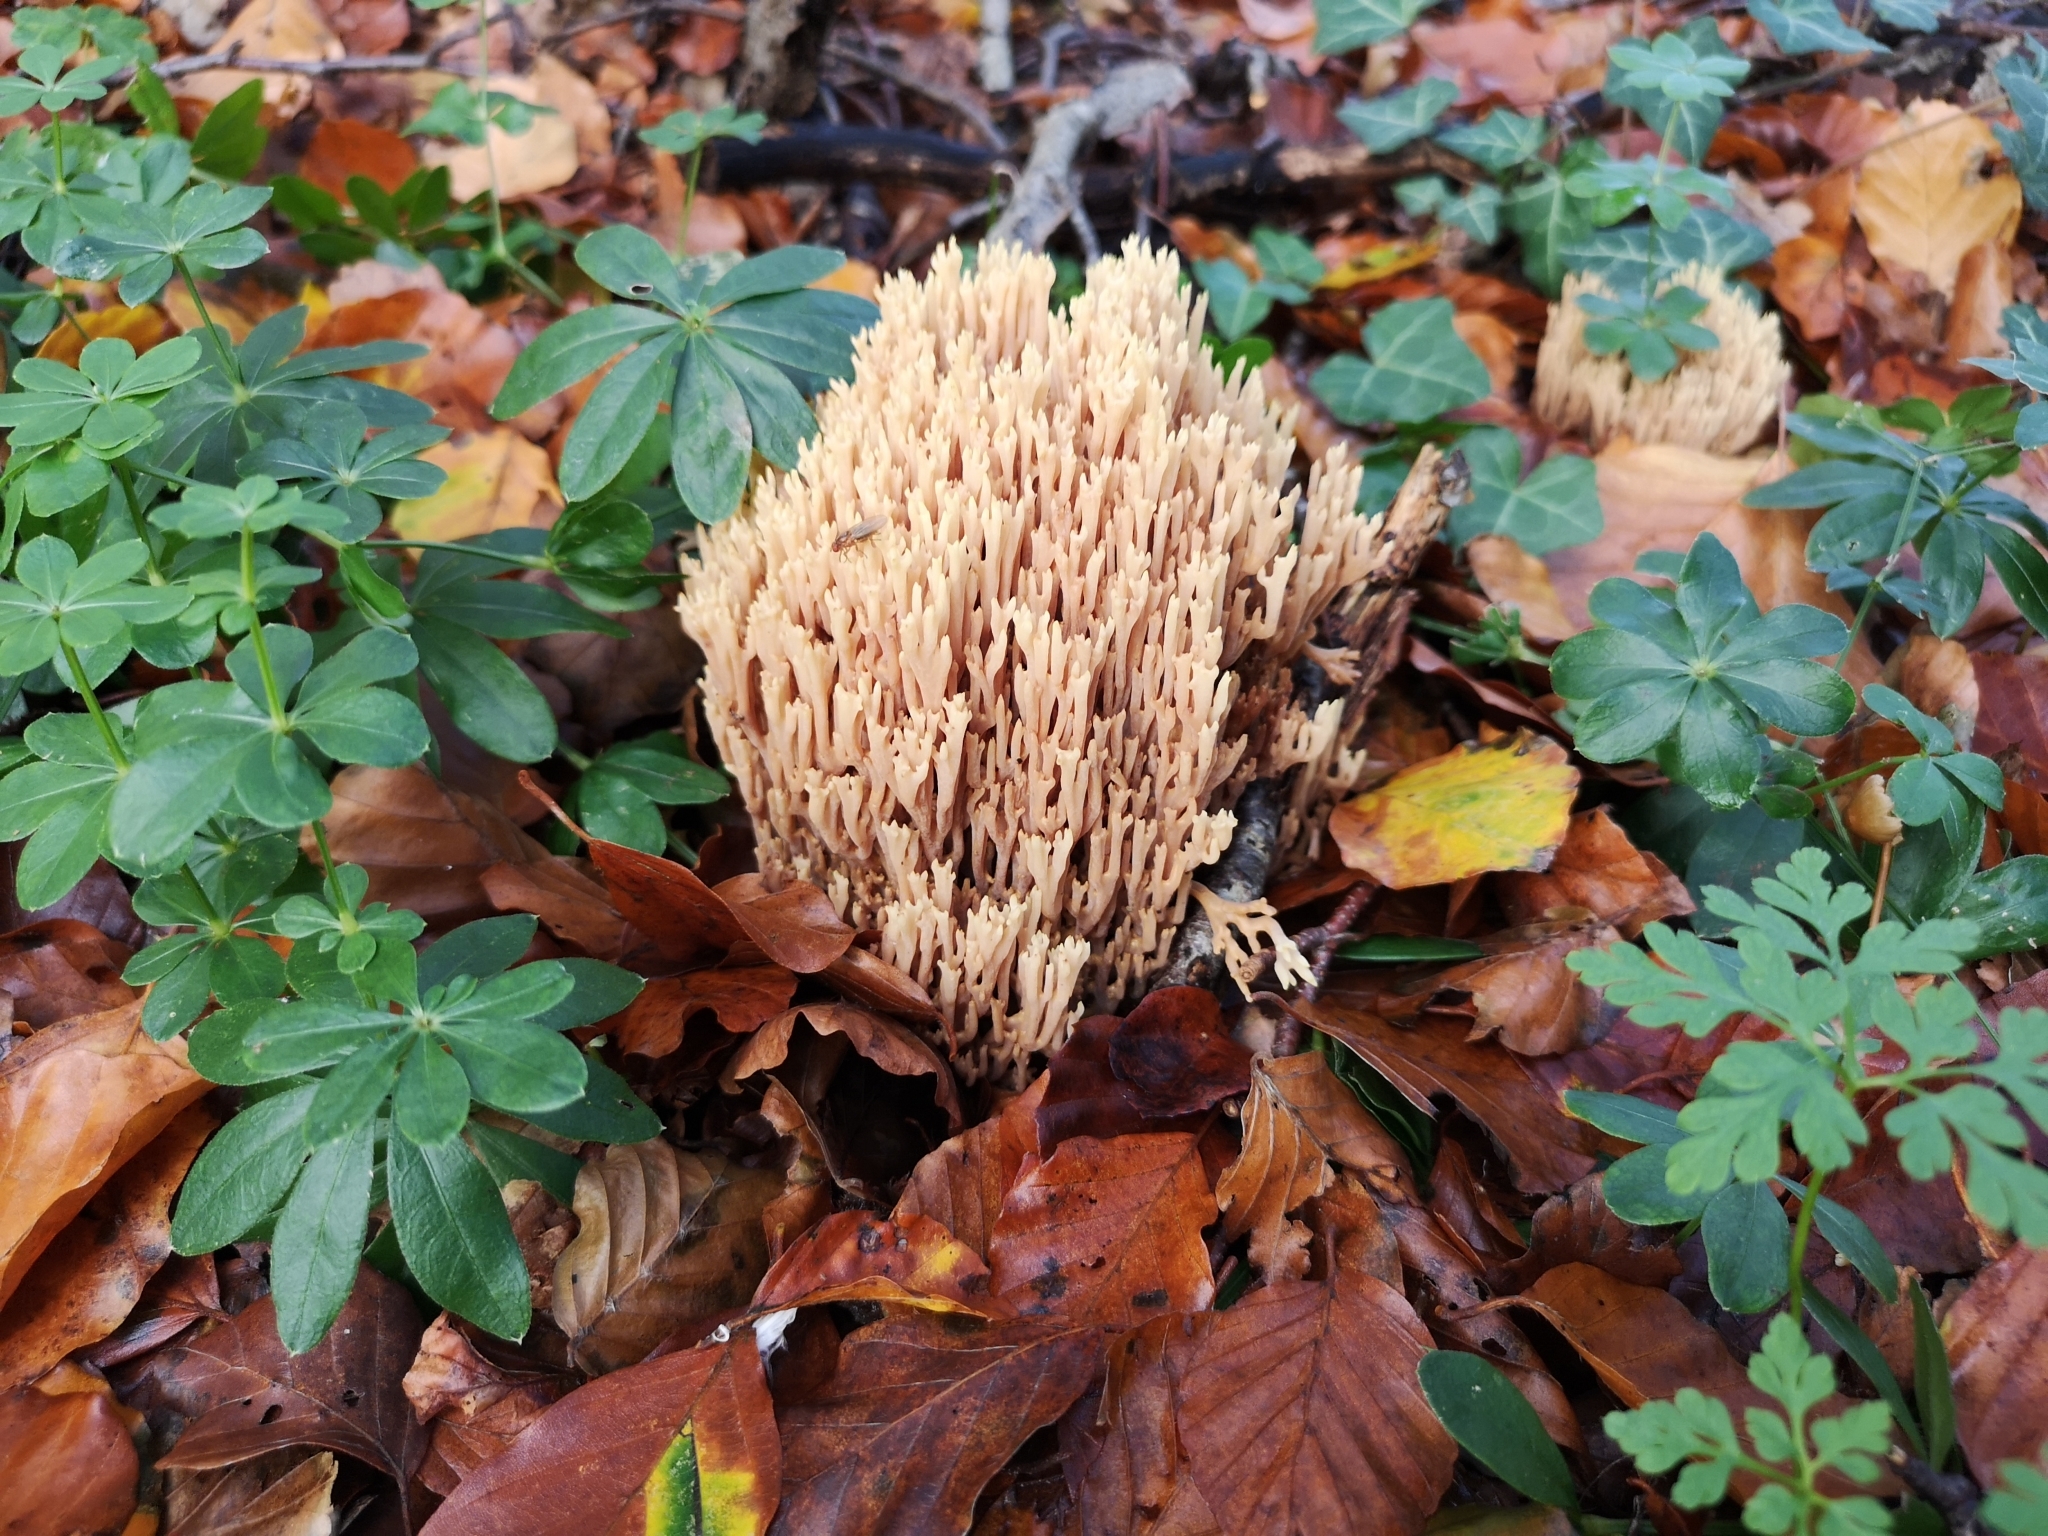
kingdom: Fungi
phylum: Basidiomycota
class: Agaricomycetes
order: Gomphales
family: Gomphaceae
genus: Ramaria
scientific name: Ramaria stricta
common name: Upright coral
